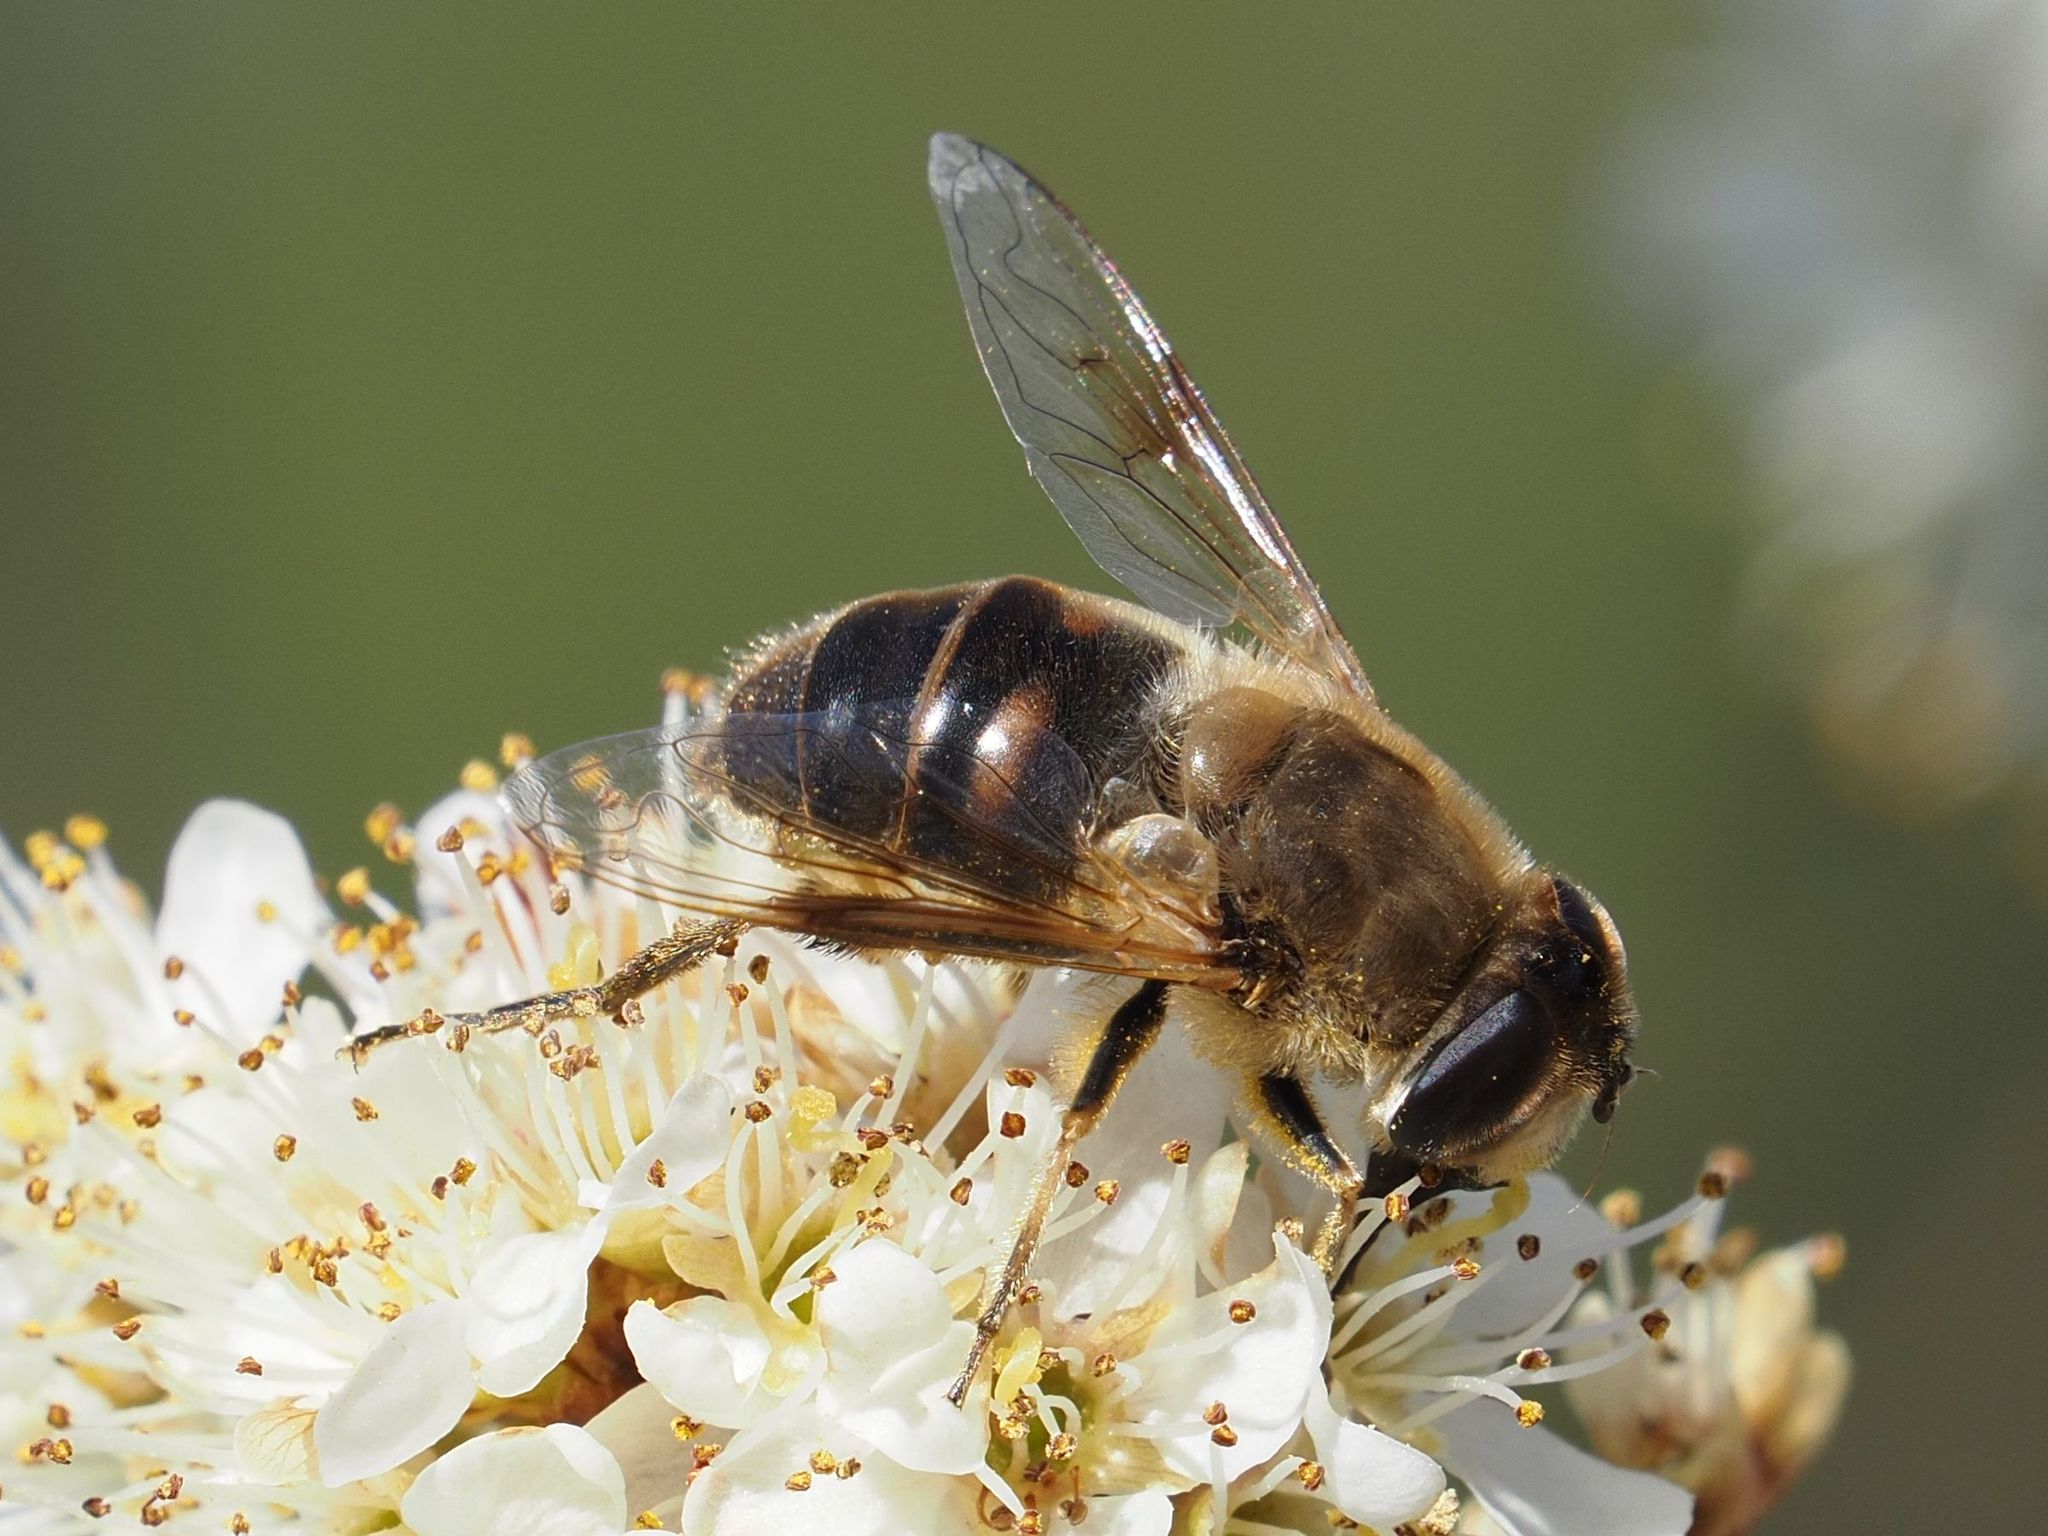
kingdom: Animalia
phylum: Arthropoda
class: Insecta
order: Diptera
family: Syrphidae
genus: Eristalis
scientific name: Eristalis tenax
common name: Drone fly
